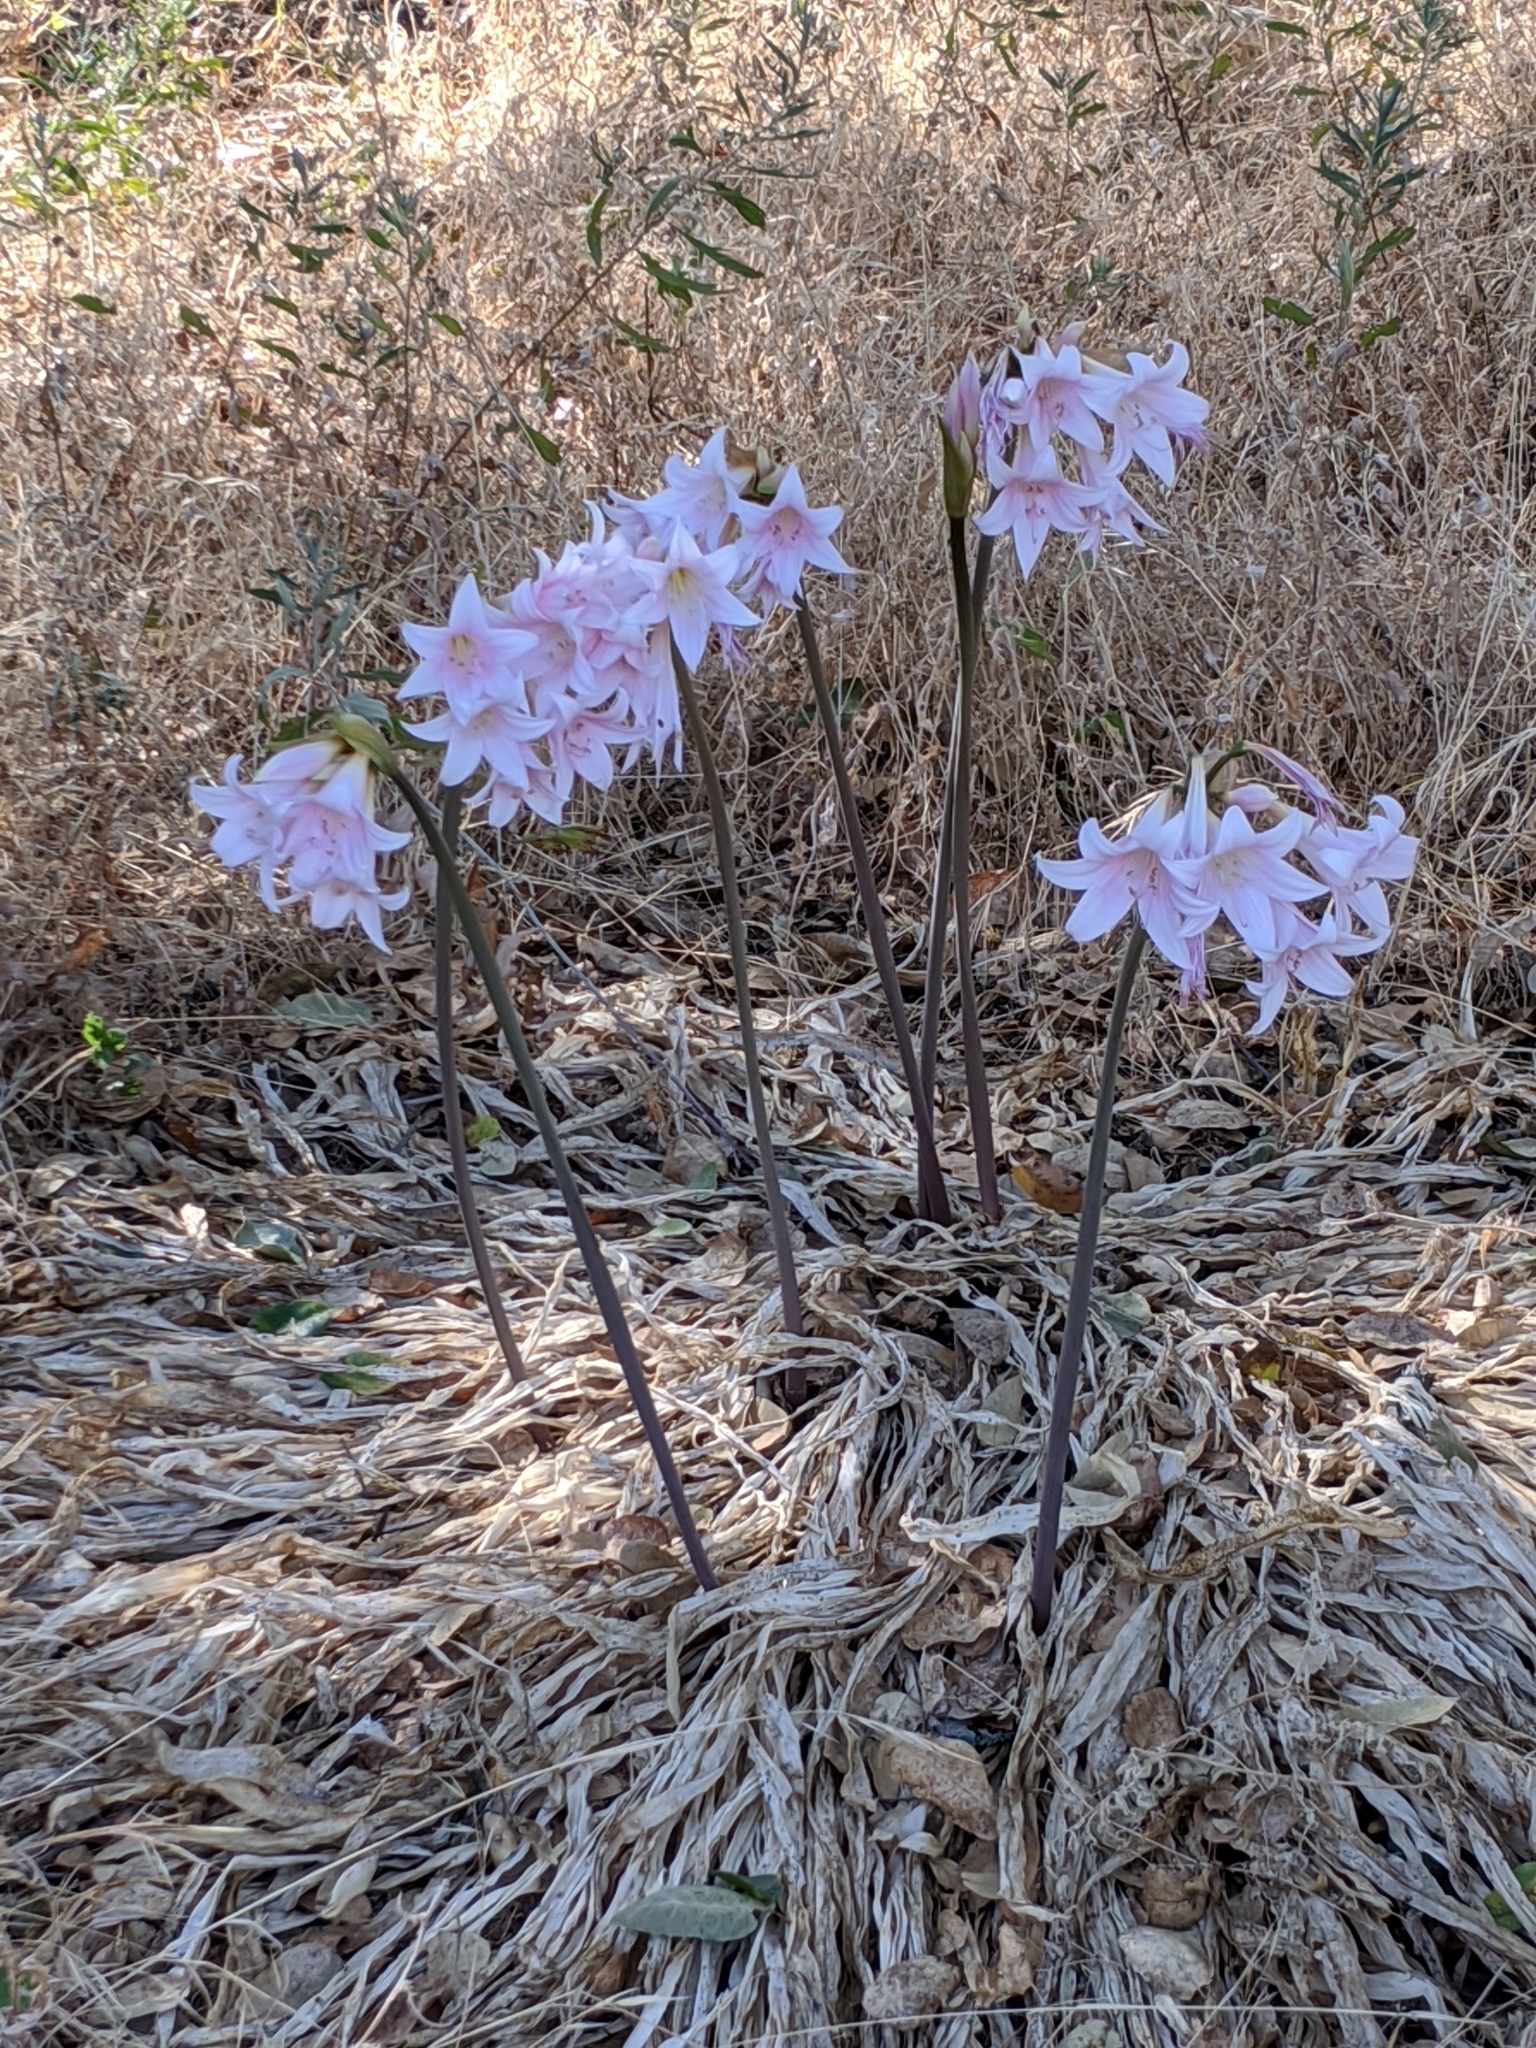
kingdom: Plantae
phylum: Tracheophyta
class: Liliopsida
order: Asparagales
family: Amaryllidaceae
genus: Amaryllis
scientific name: Amaryllis belladonna
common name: Jersey lily
